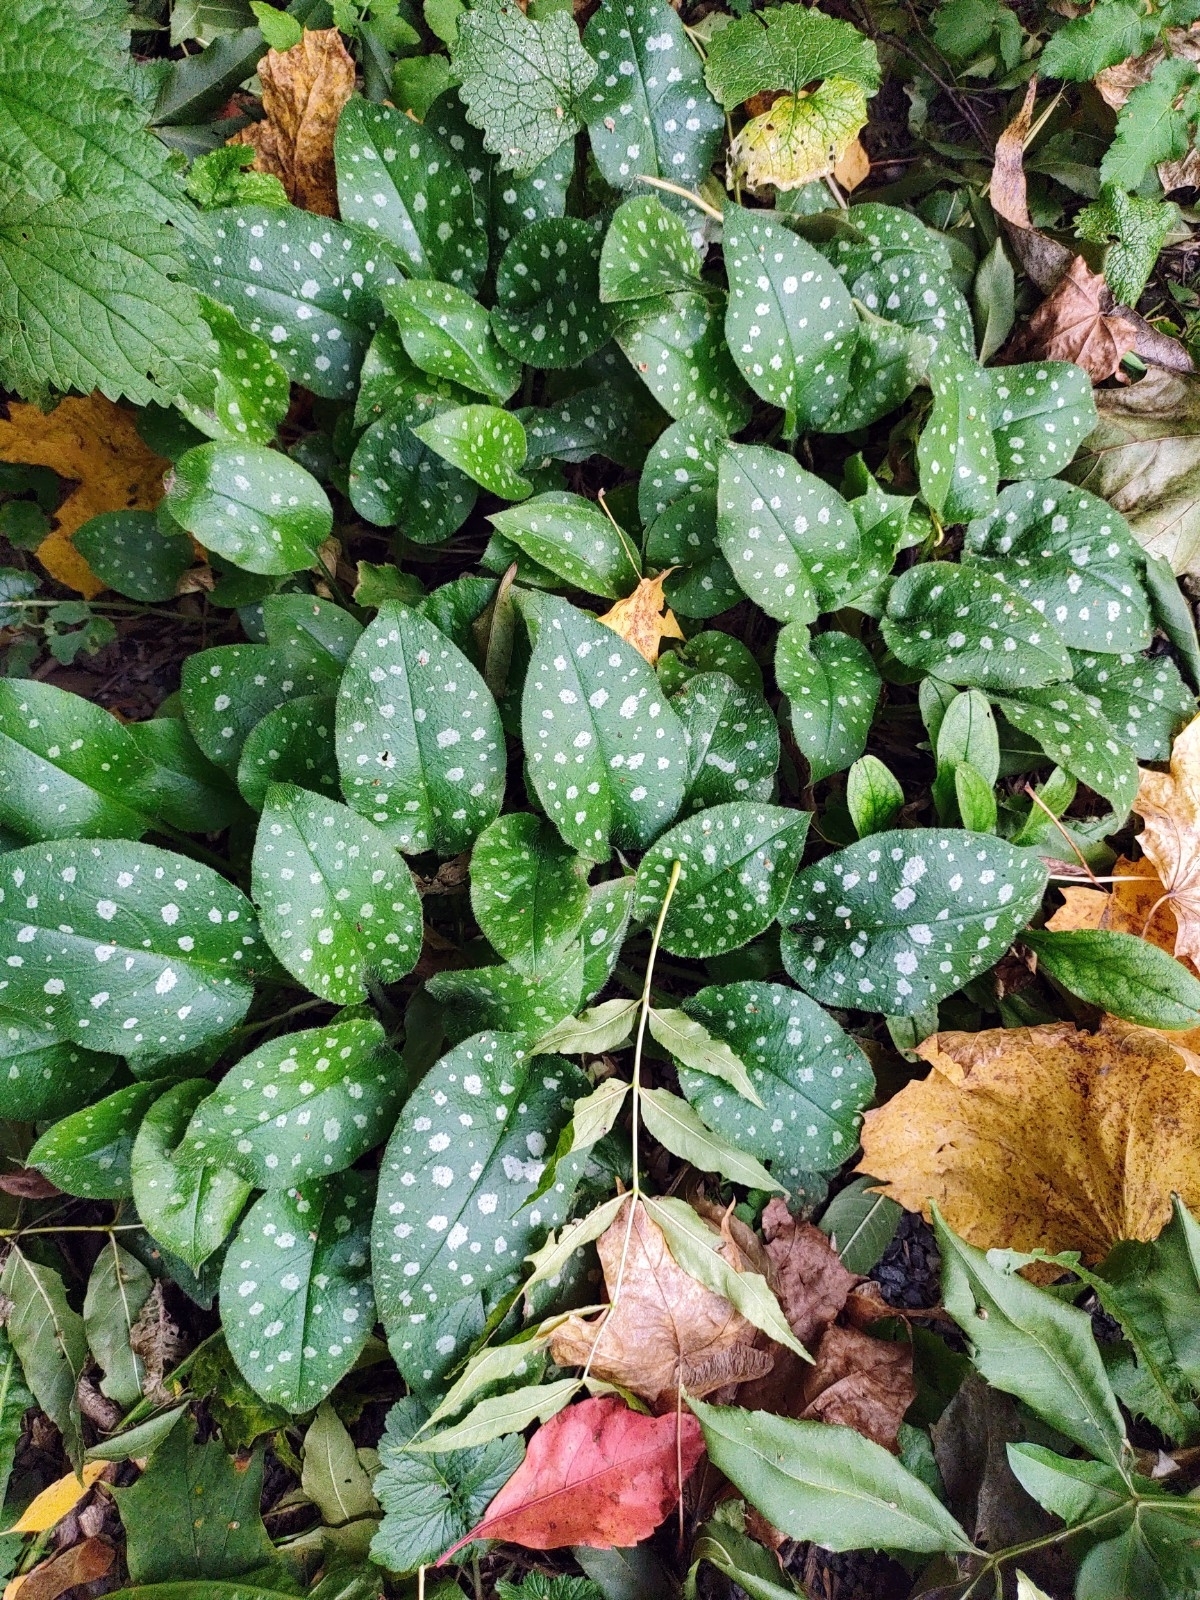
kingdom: Plantae
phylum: Tracheophyta
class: Magnoliopsida
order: Boraginales
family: Boraginaceae
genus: Pulmonaria
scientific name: Pulmonaria officinalis
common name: Lungwort
